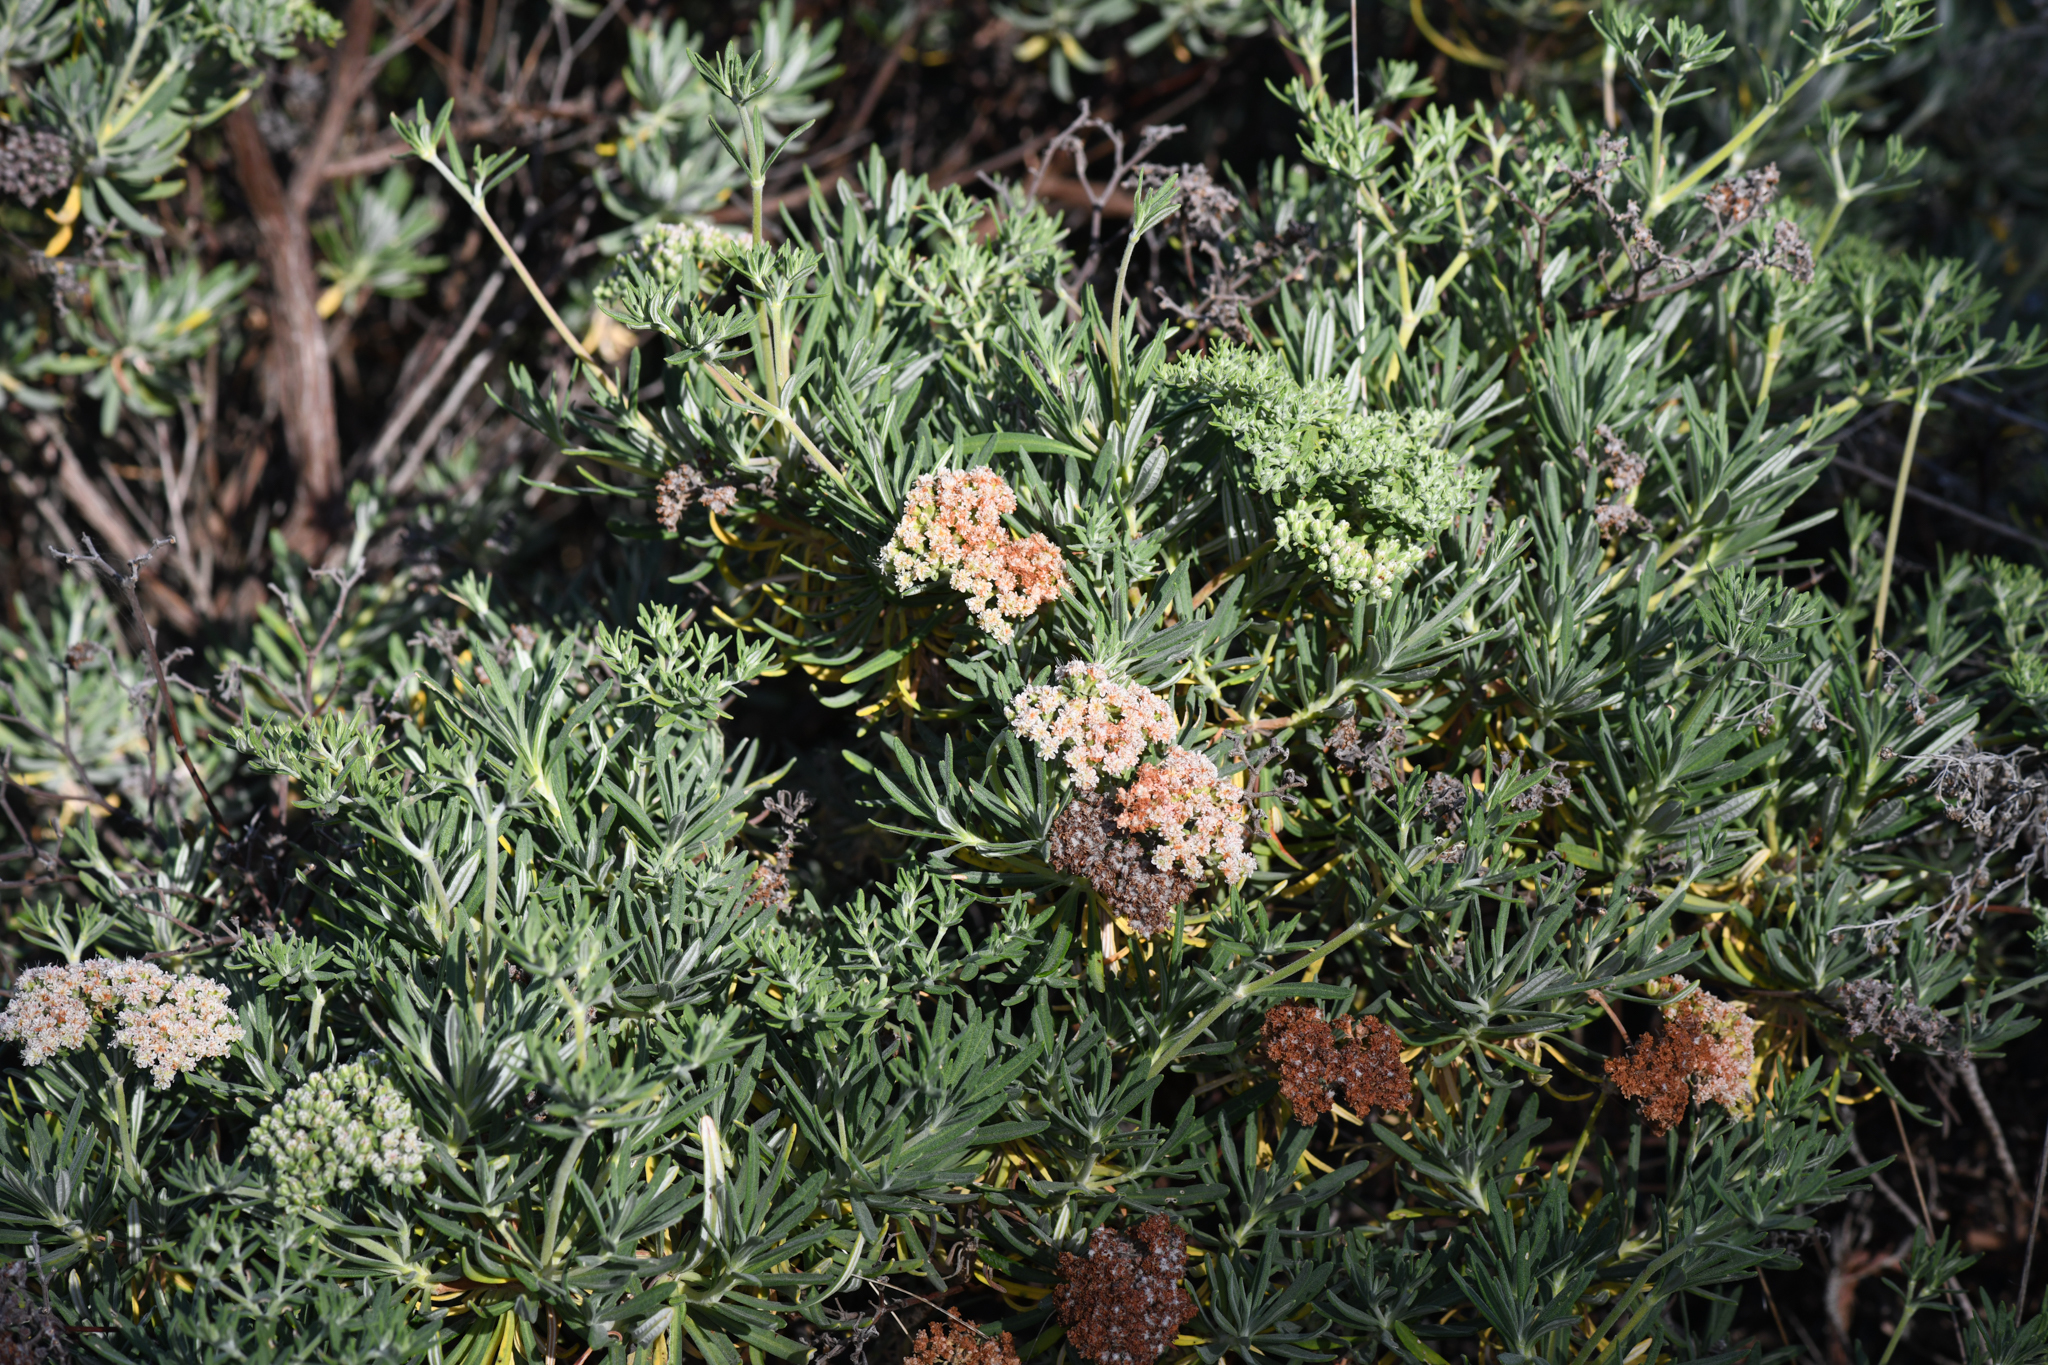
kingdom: Plantae
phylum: Tracheophyta
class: Magnoliopsida
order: Caryophyllales
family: Polygonaceae
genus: Eriogonum
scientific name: Eriogonum arborescens
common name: Island buckwheat
